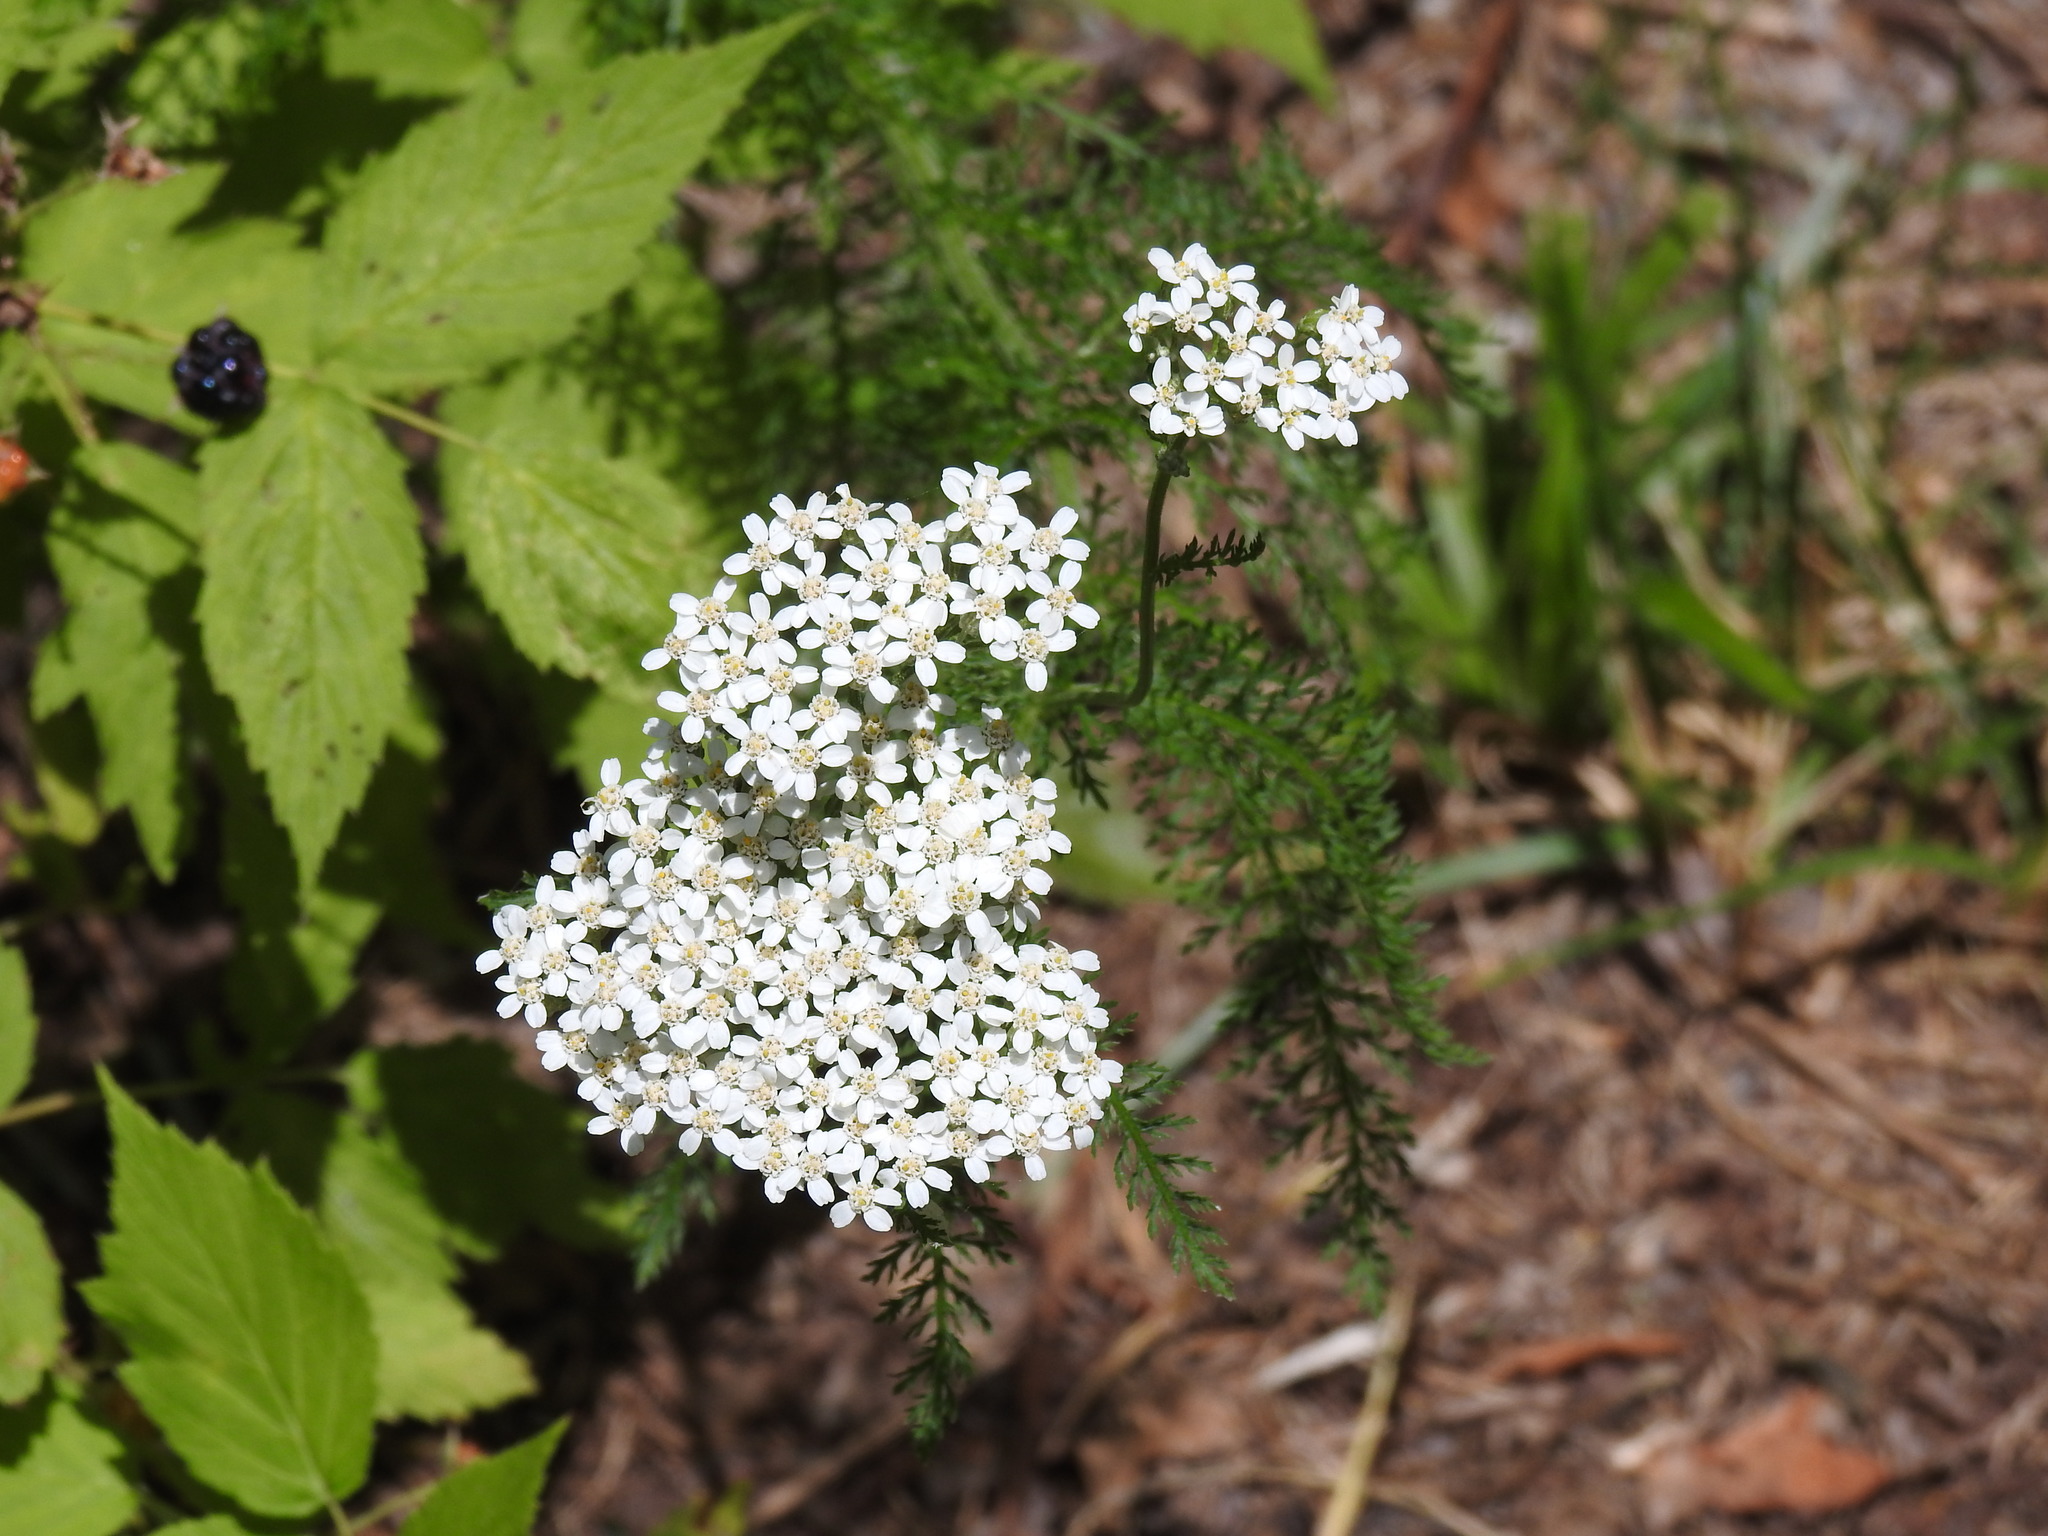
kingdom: Plantae
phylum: Tracheophyta
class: Magnoliopsida
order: Asterales
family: Asteraceae
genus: Achillea
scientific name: Achillea millefolium
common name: Yarrow
